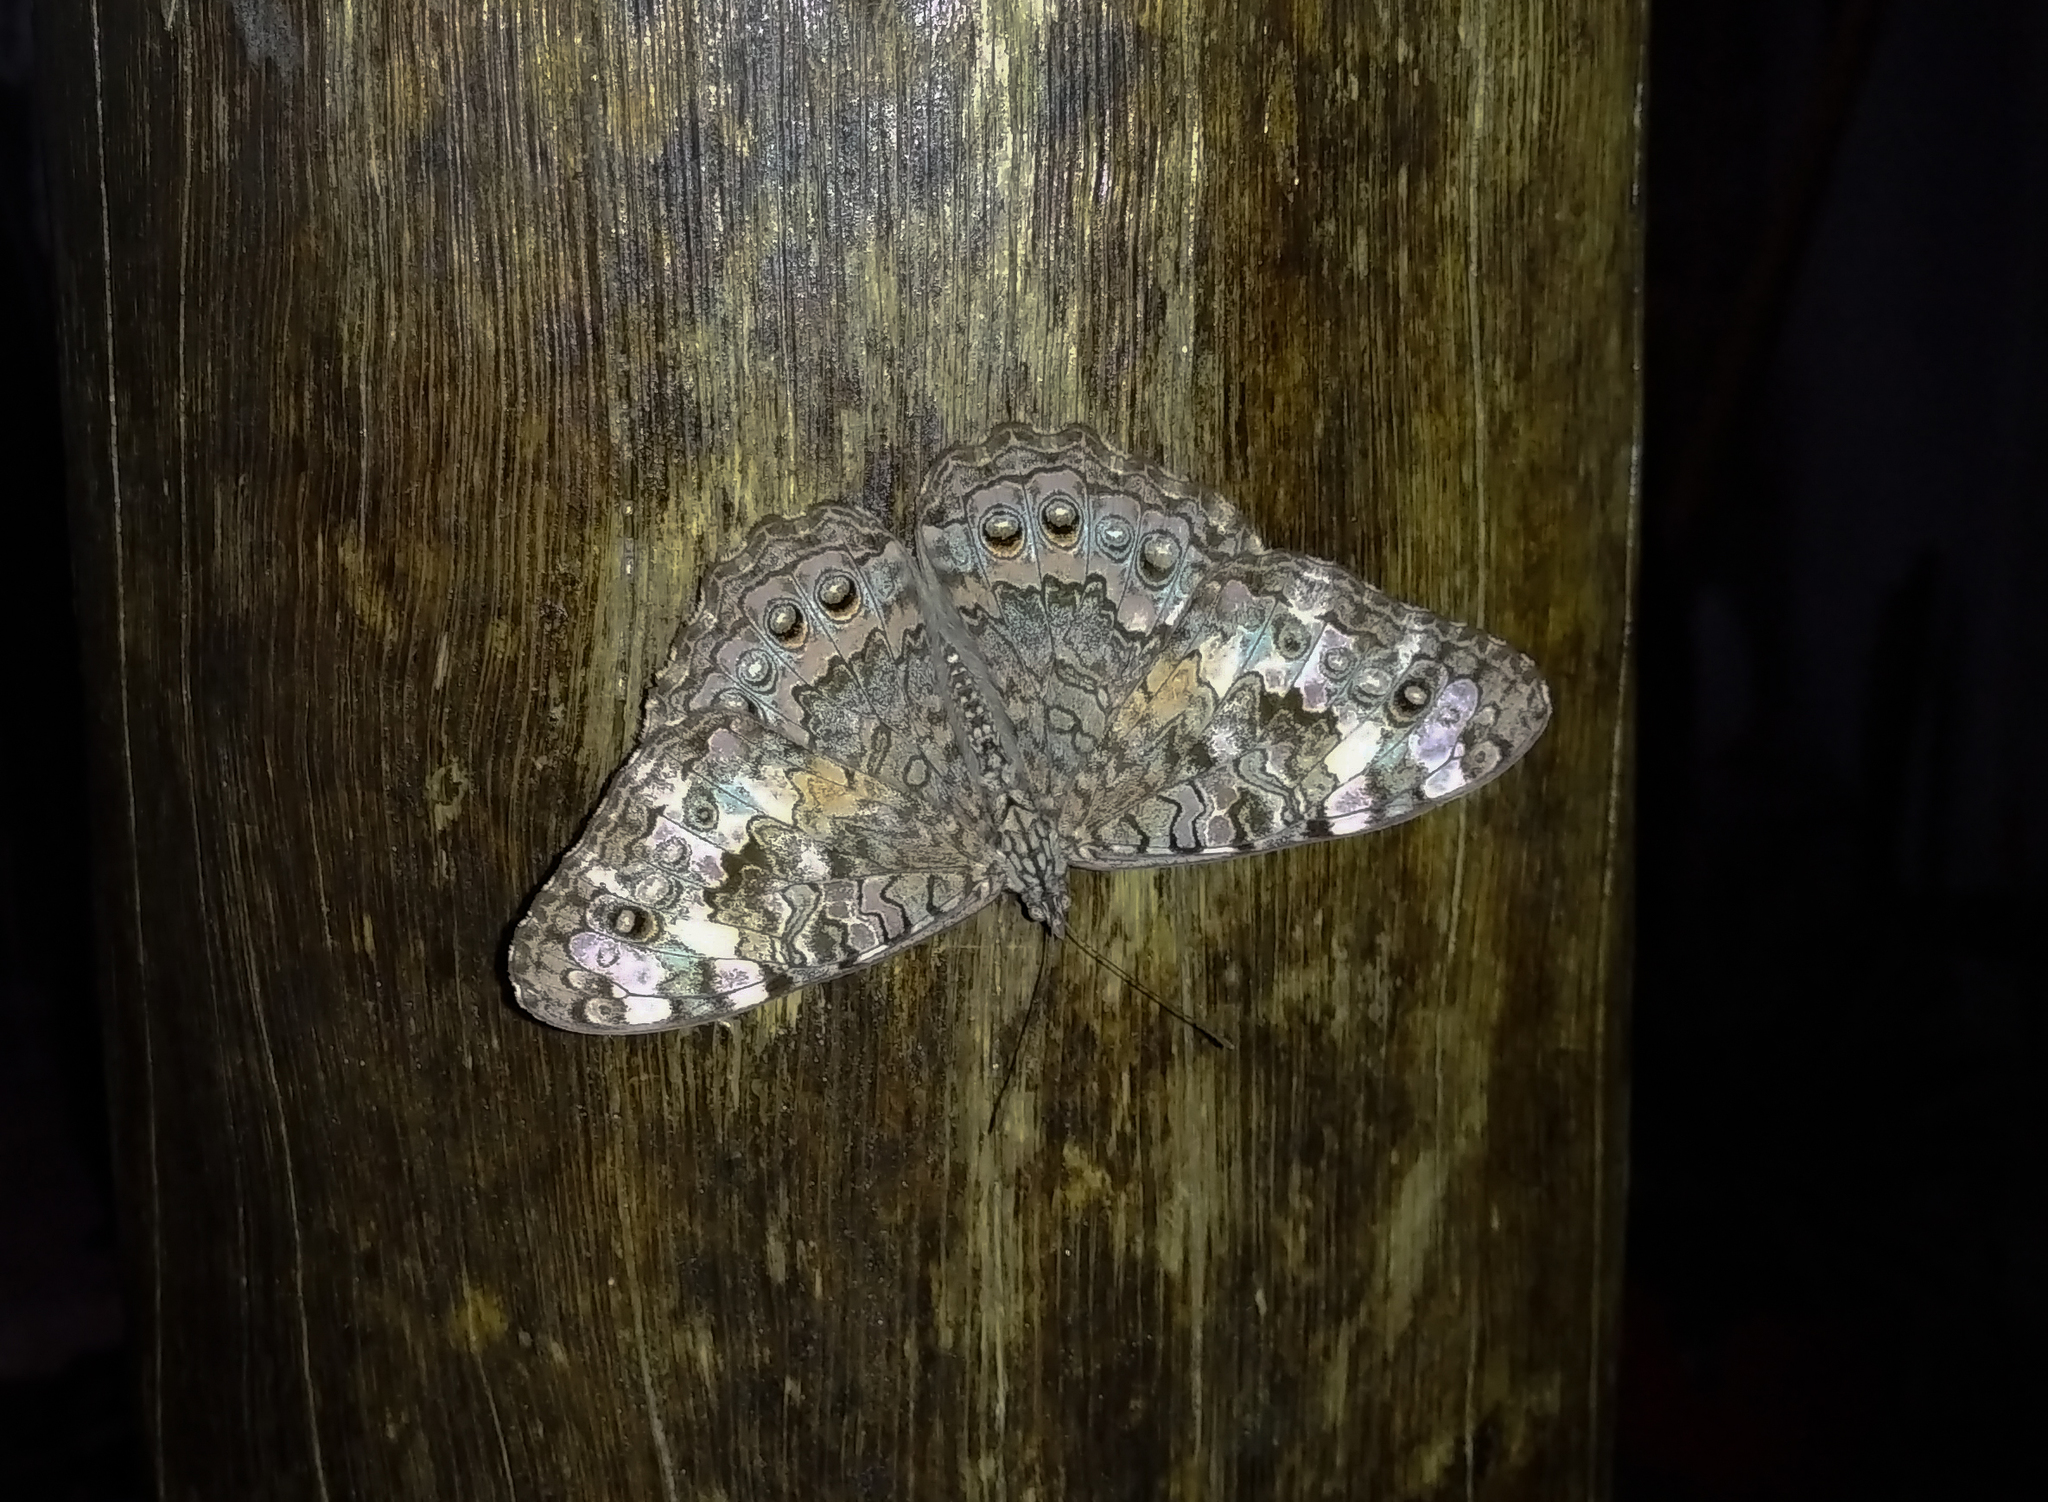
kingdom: Animalia
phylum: Arthropoda
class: Insecta
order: Lepidoptera
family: Nymphalidae
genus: Hamadryas
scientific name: Hamadryas februa
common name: Gray cracker
